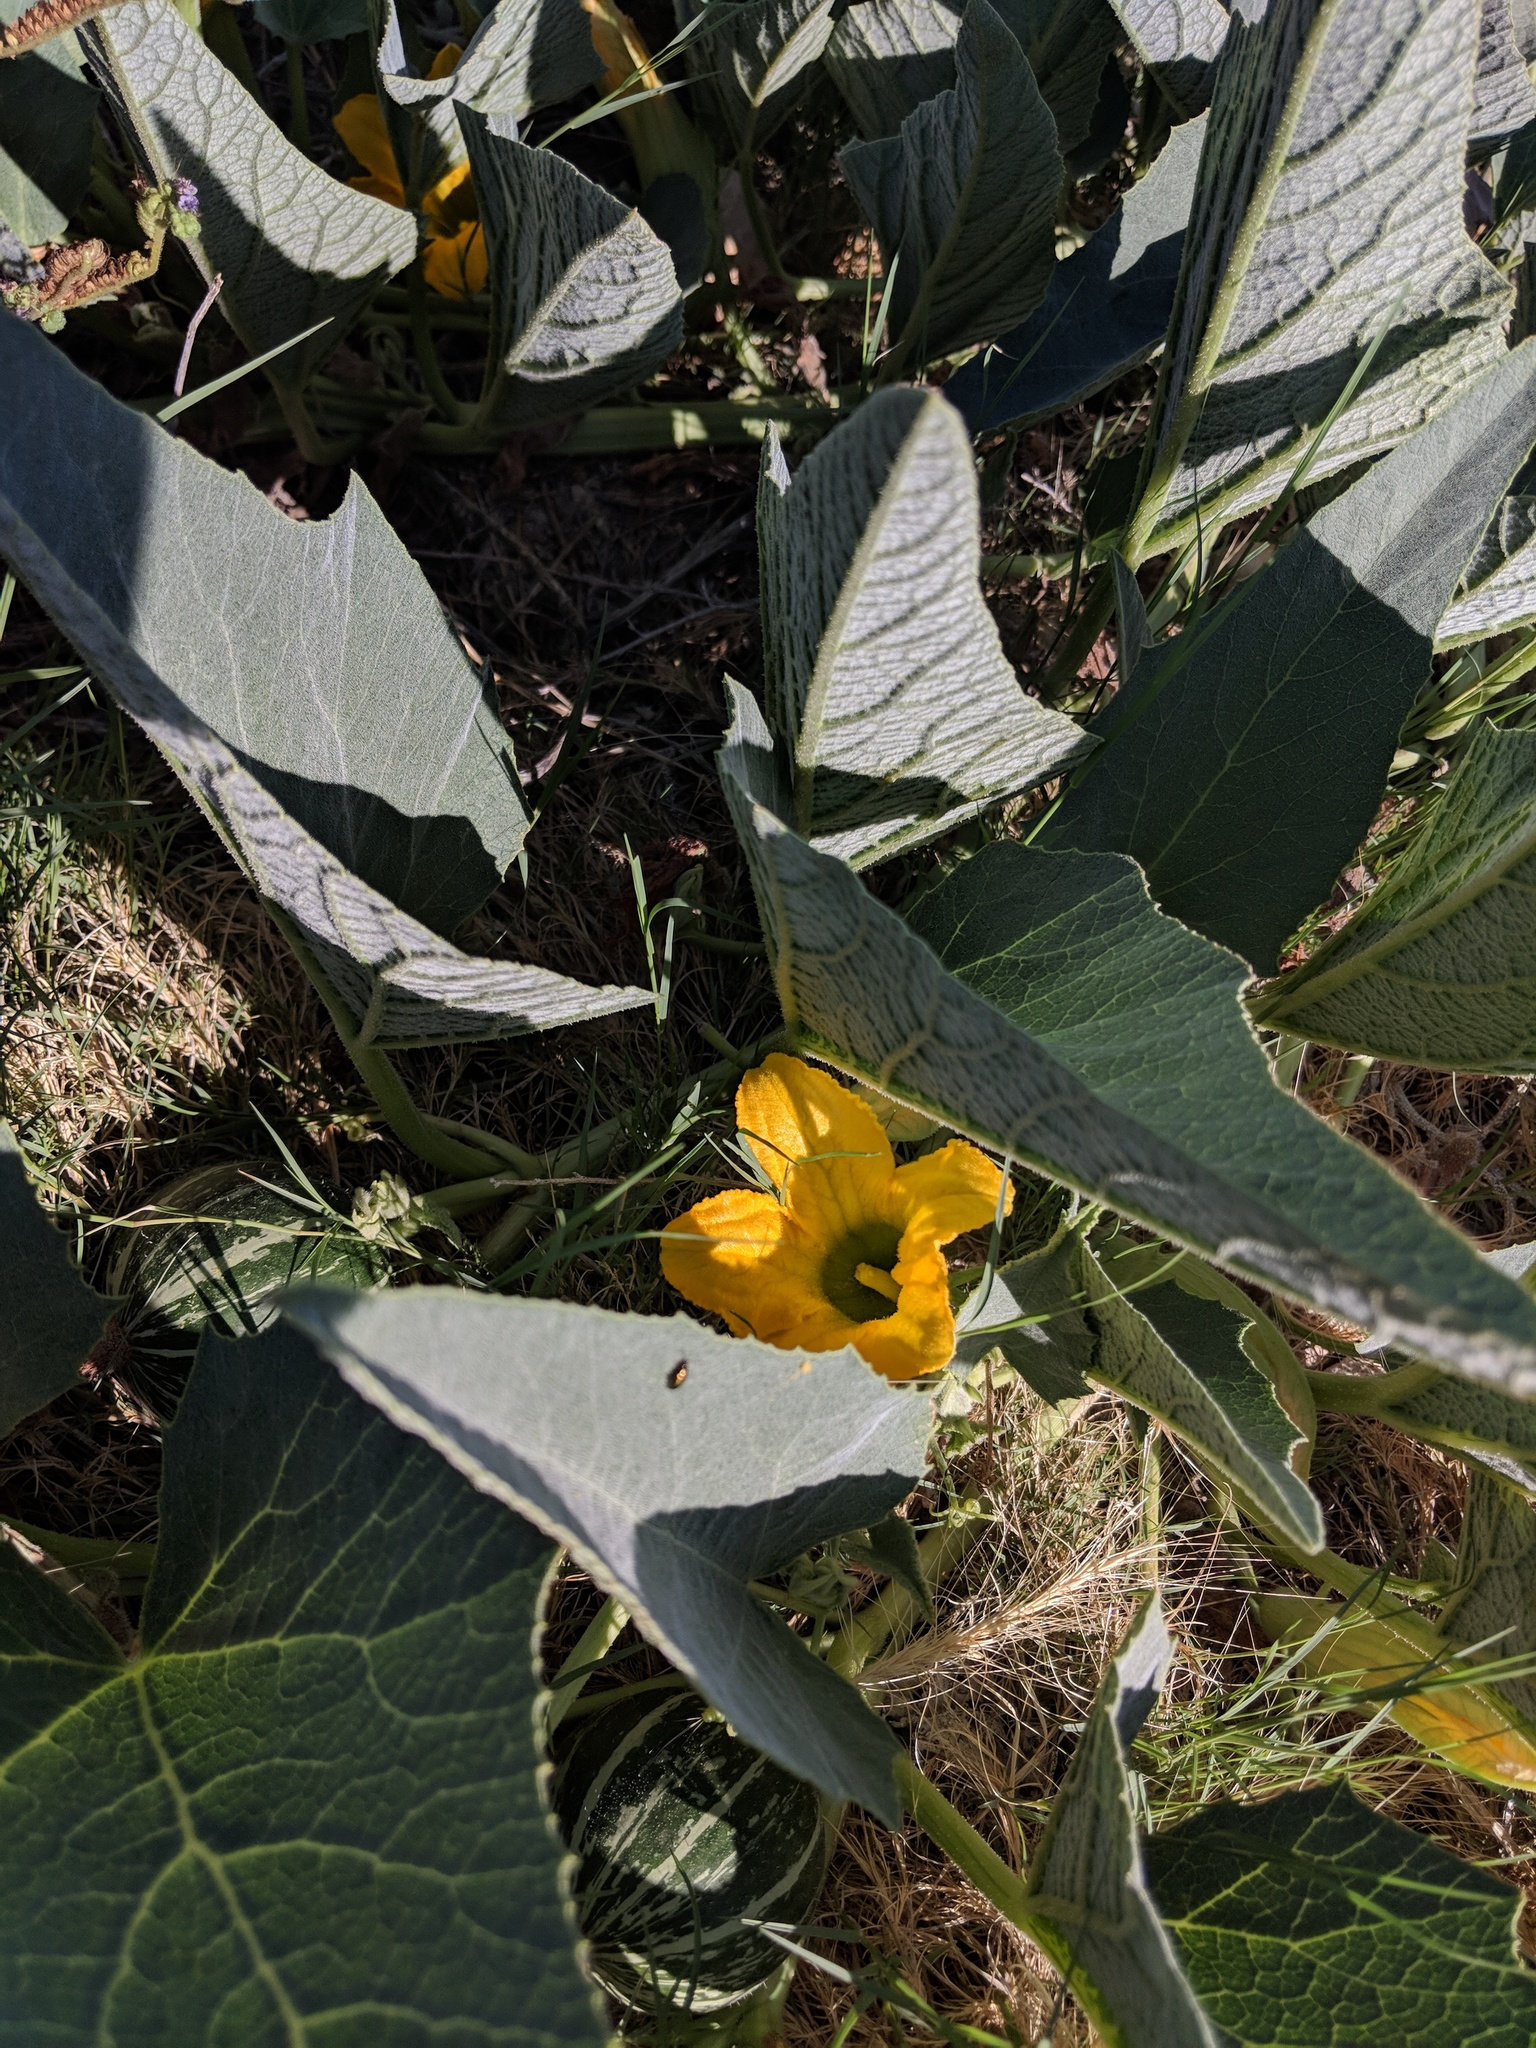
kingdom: Plantae
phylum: Tracheophyta
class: Magnoliopsida
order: Cucurbitales
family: Cucurbitaceae
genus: Cucurbita
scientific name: Cucurbita foetidissima
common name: Buffalo gourd
